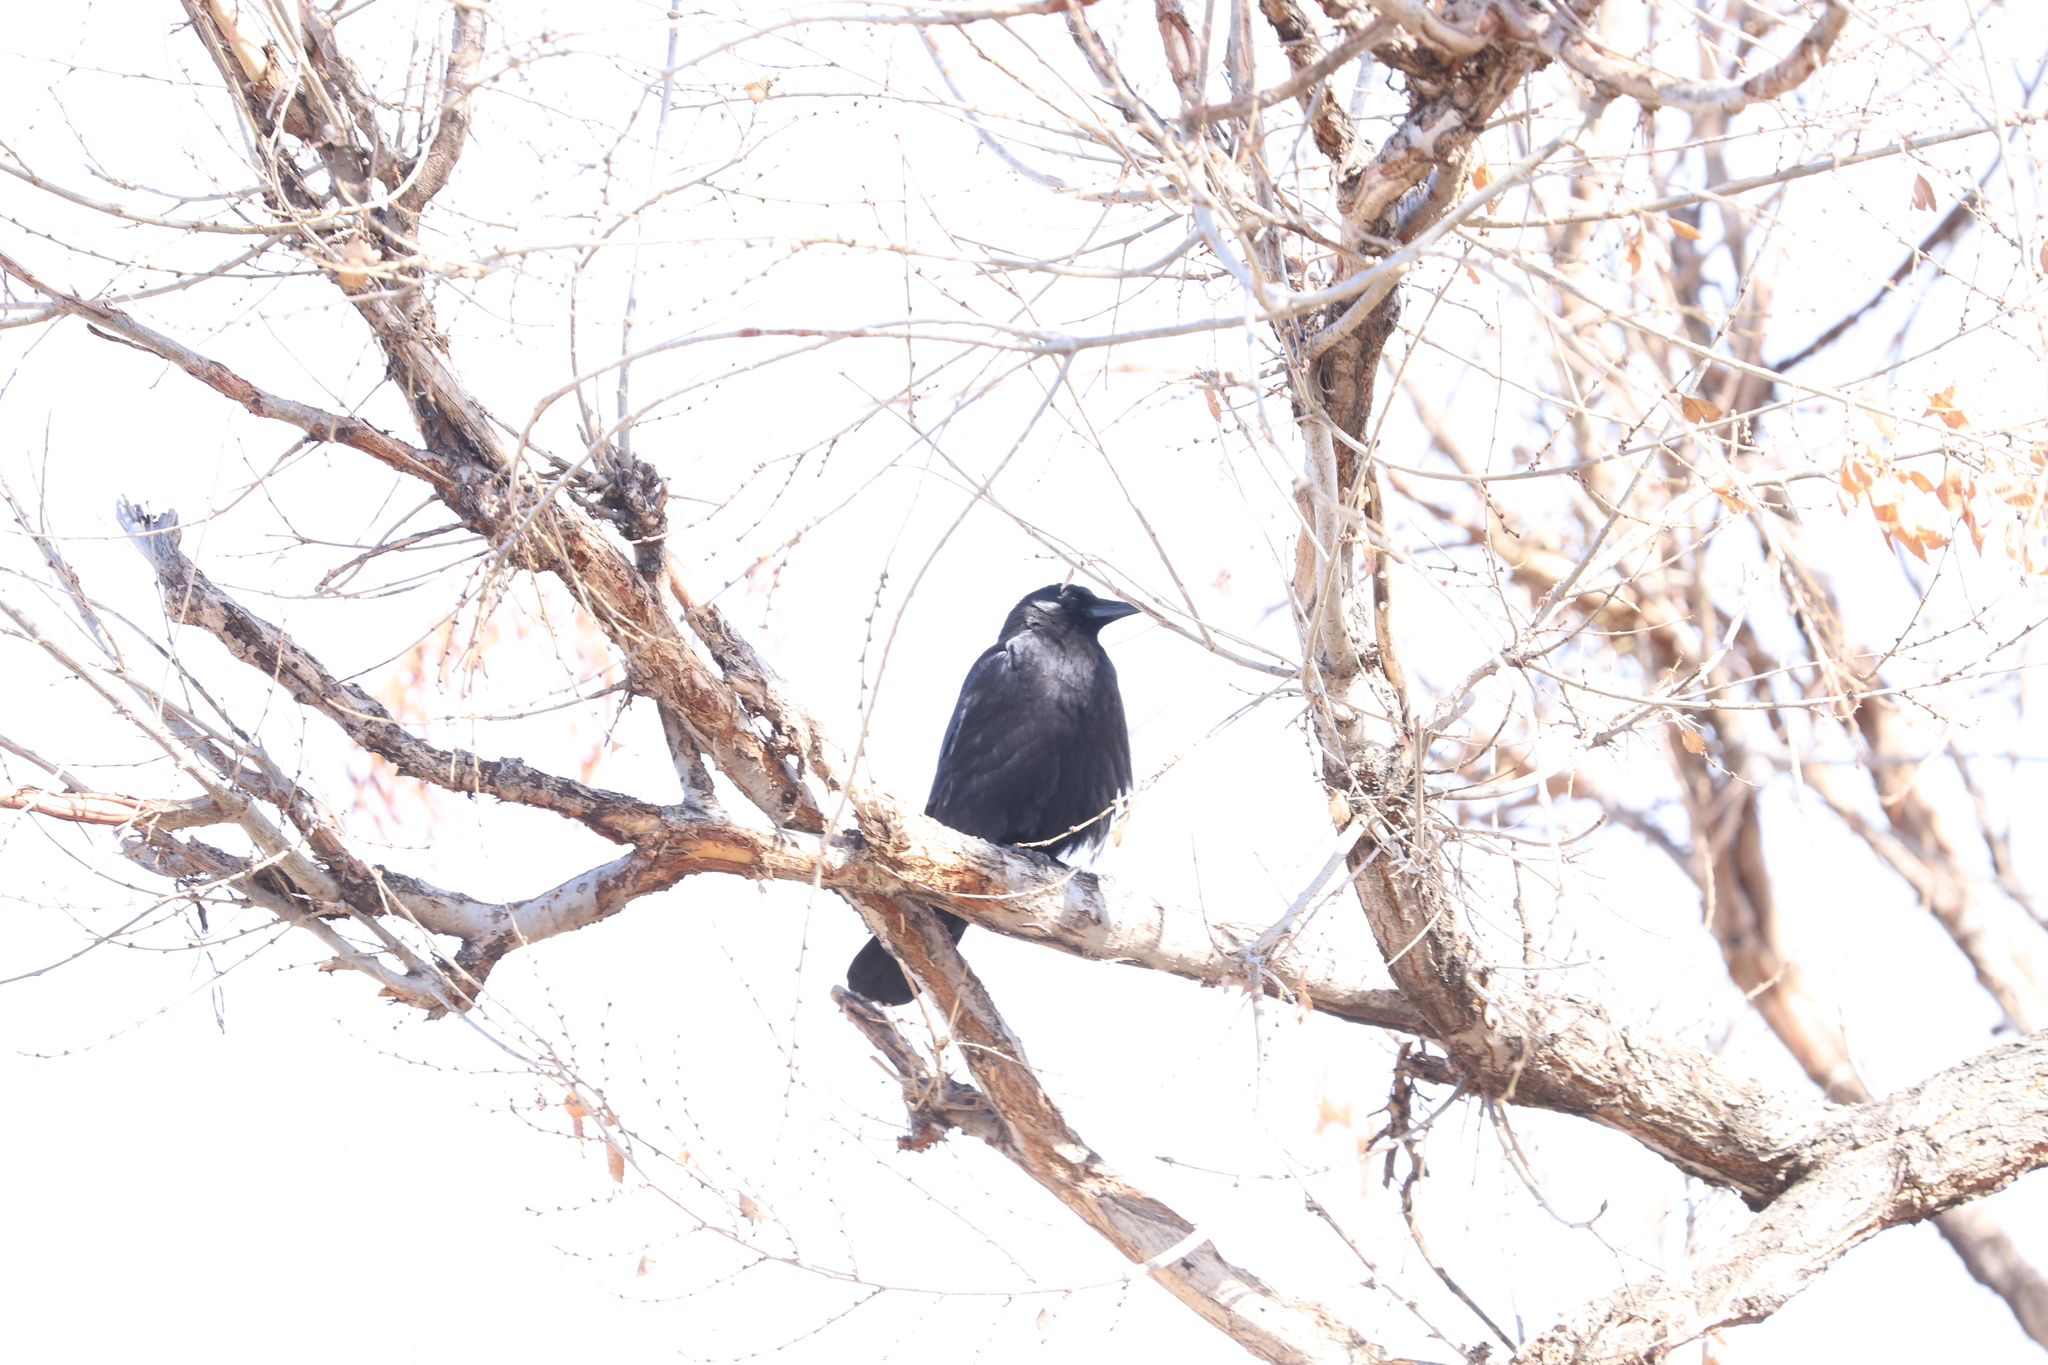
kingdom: Animalia
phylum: Chordata
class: Aves
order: Passeriformes
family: Corvidae
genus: Corvus
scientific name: Corvus brachyrhynchos
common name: American crow
